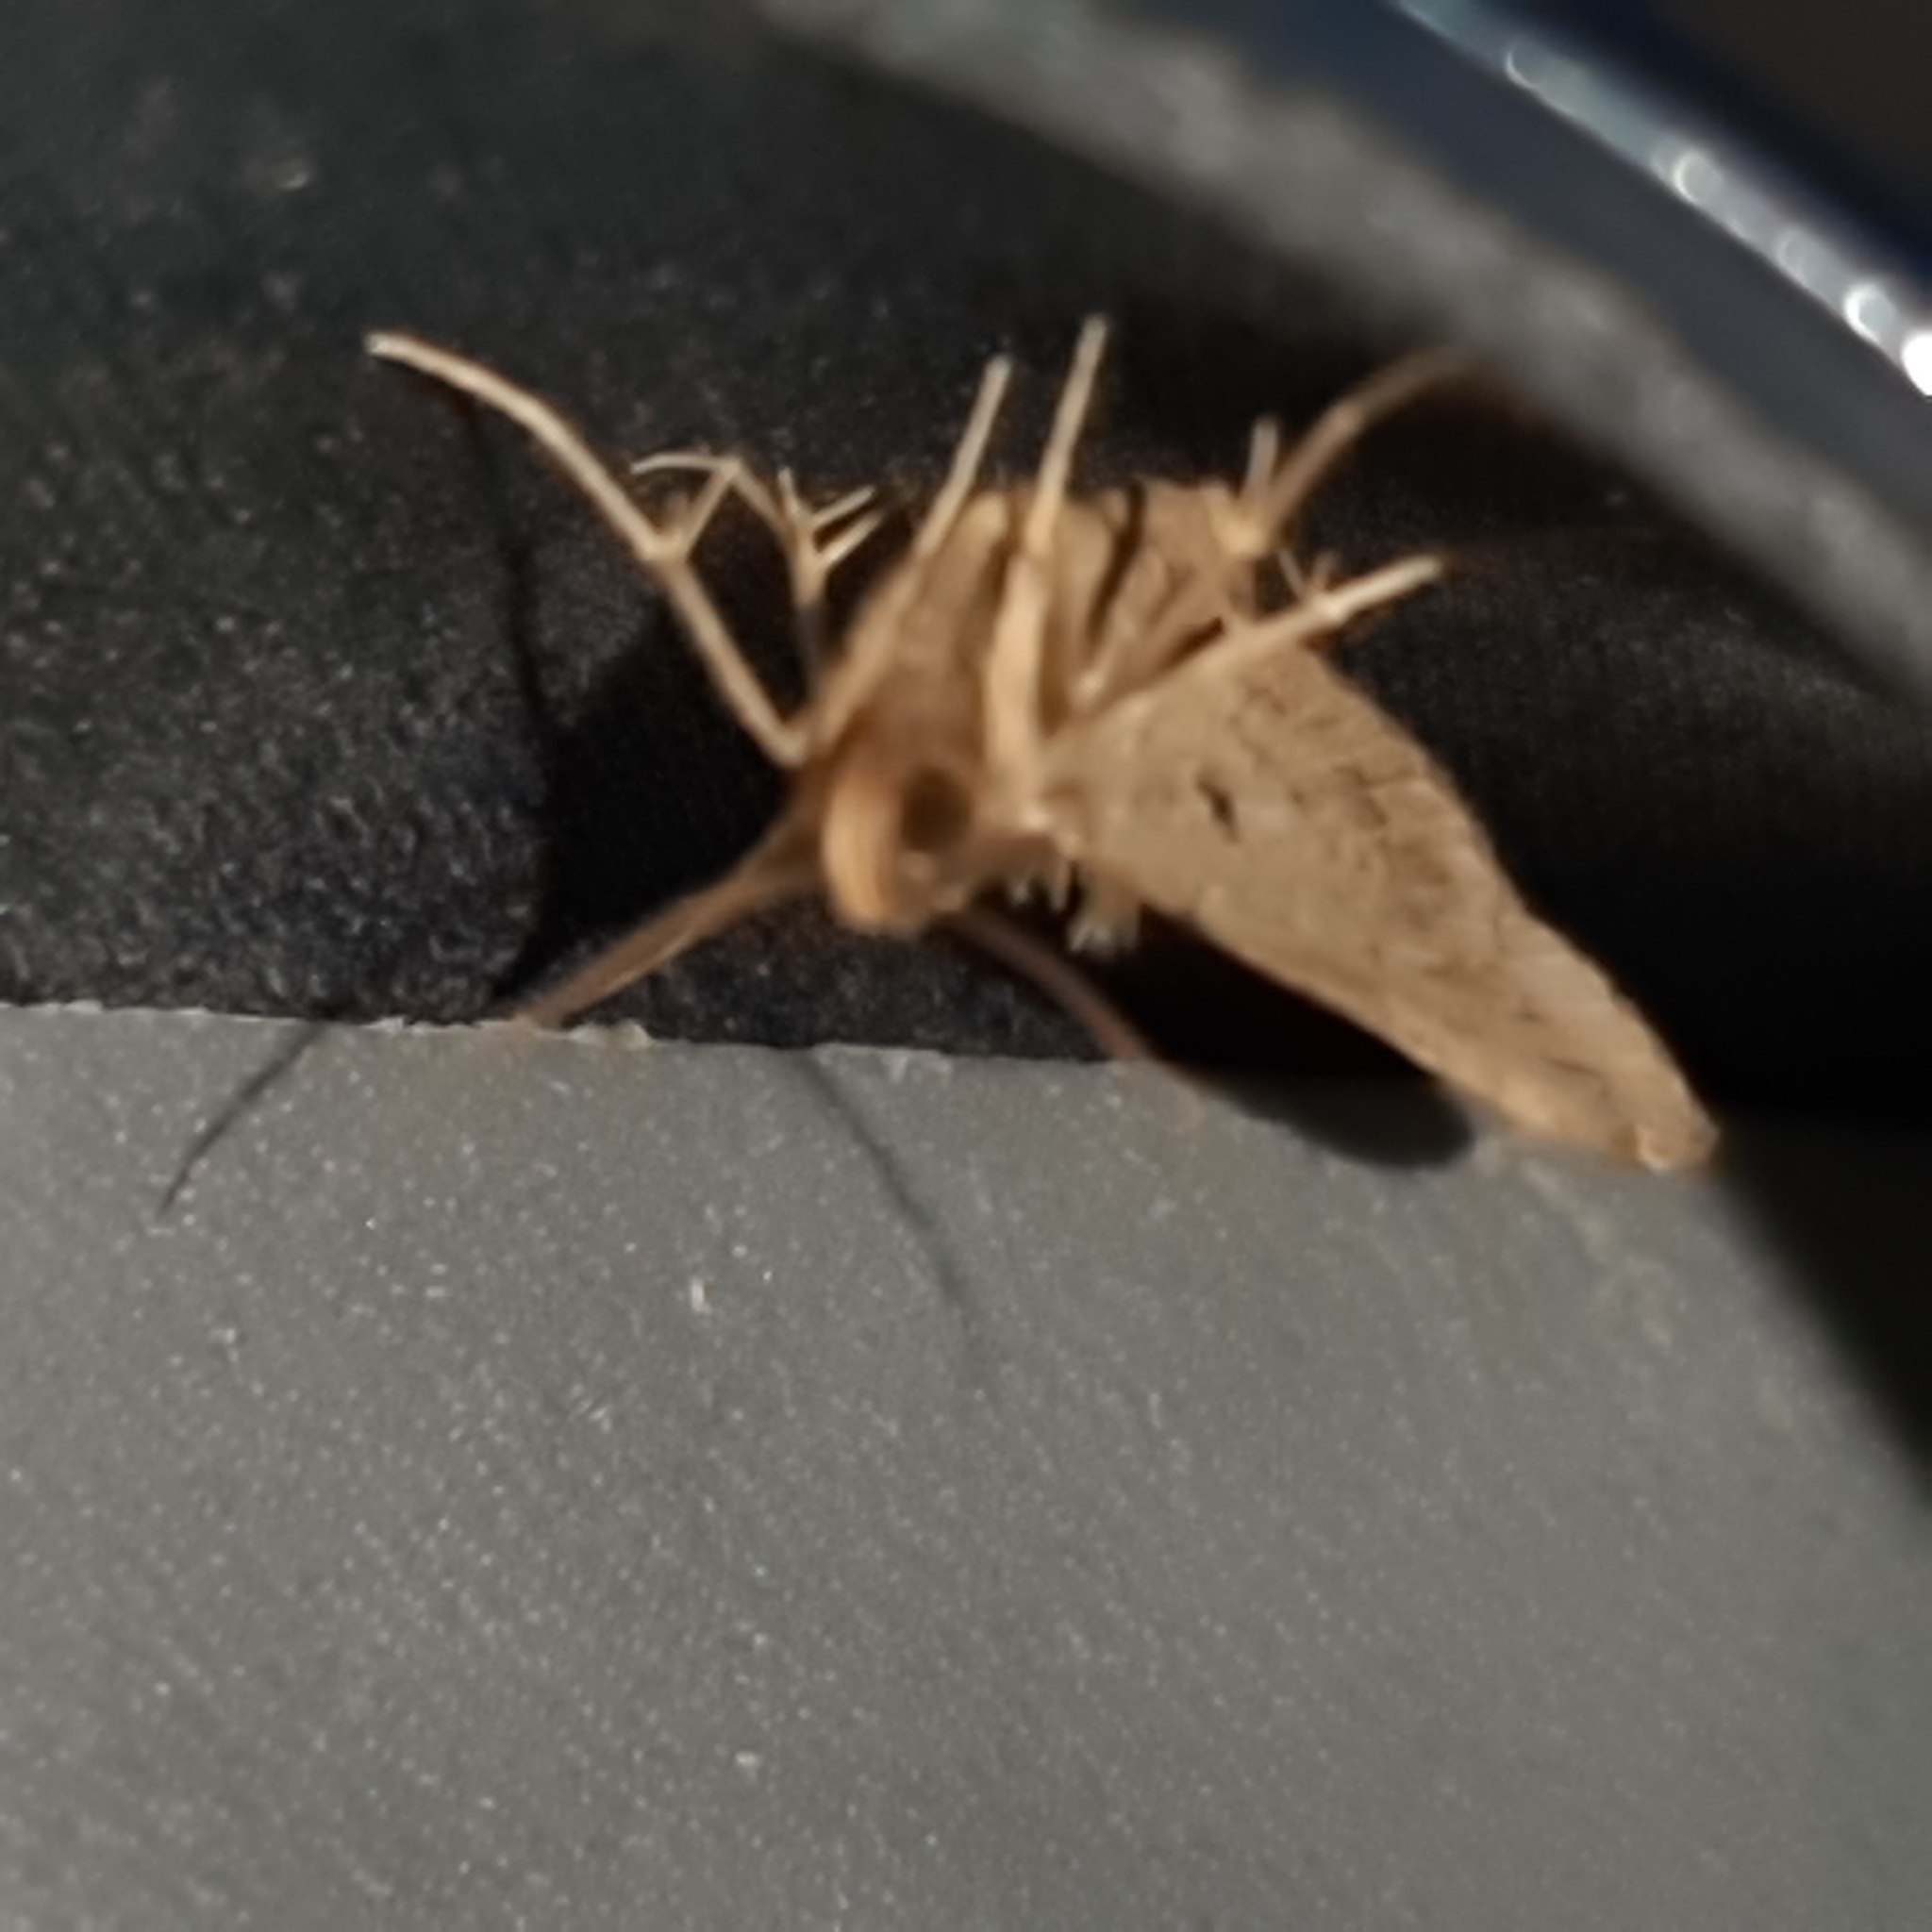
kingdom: Animalia
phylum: Arthropoda
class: Insecta
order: Lepidoptera
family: Erebidae
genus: Scopifera
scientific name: Scopifera falsirenalis
